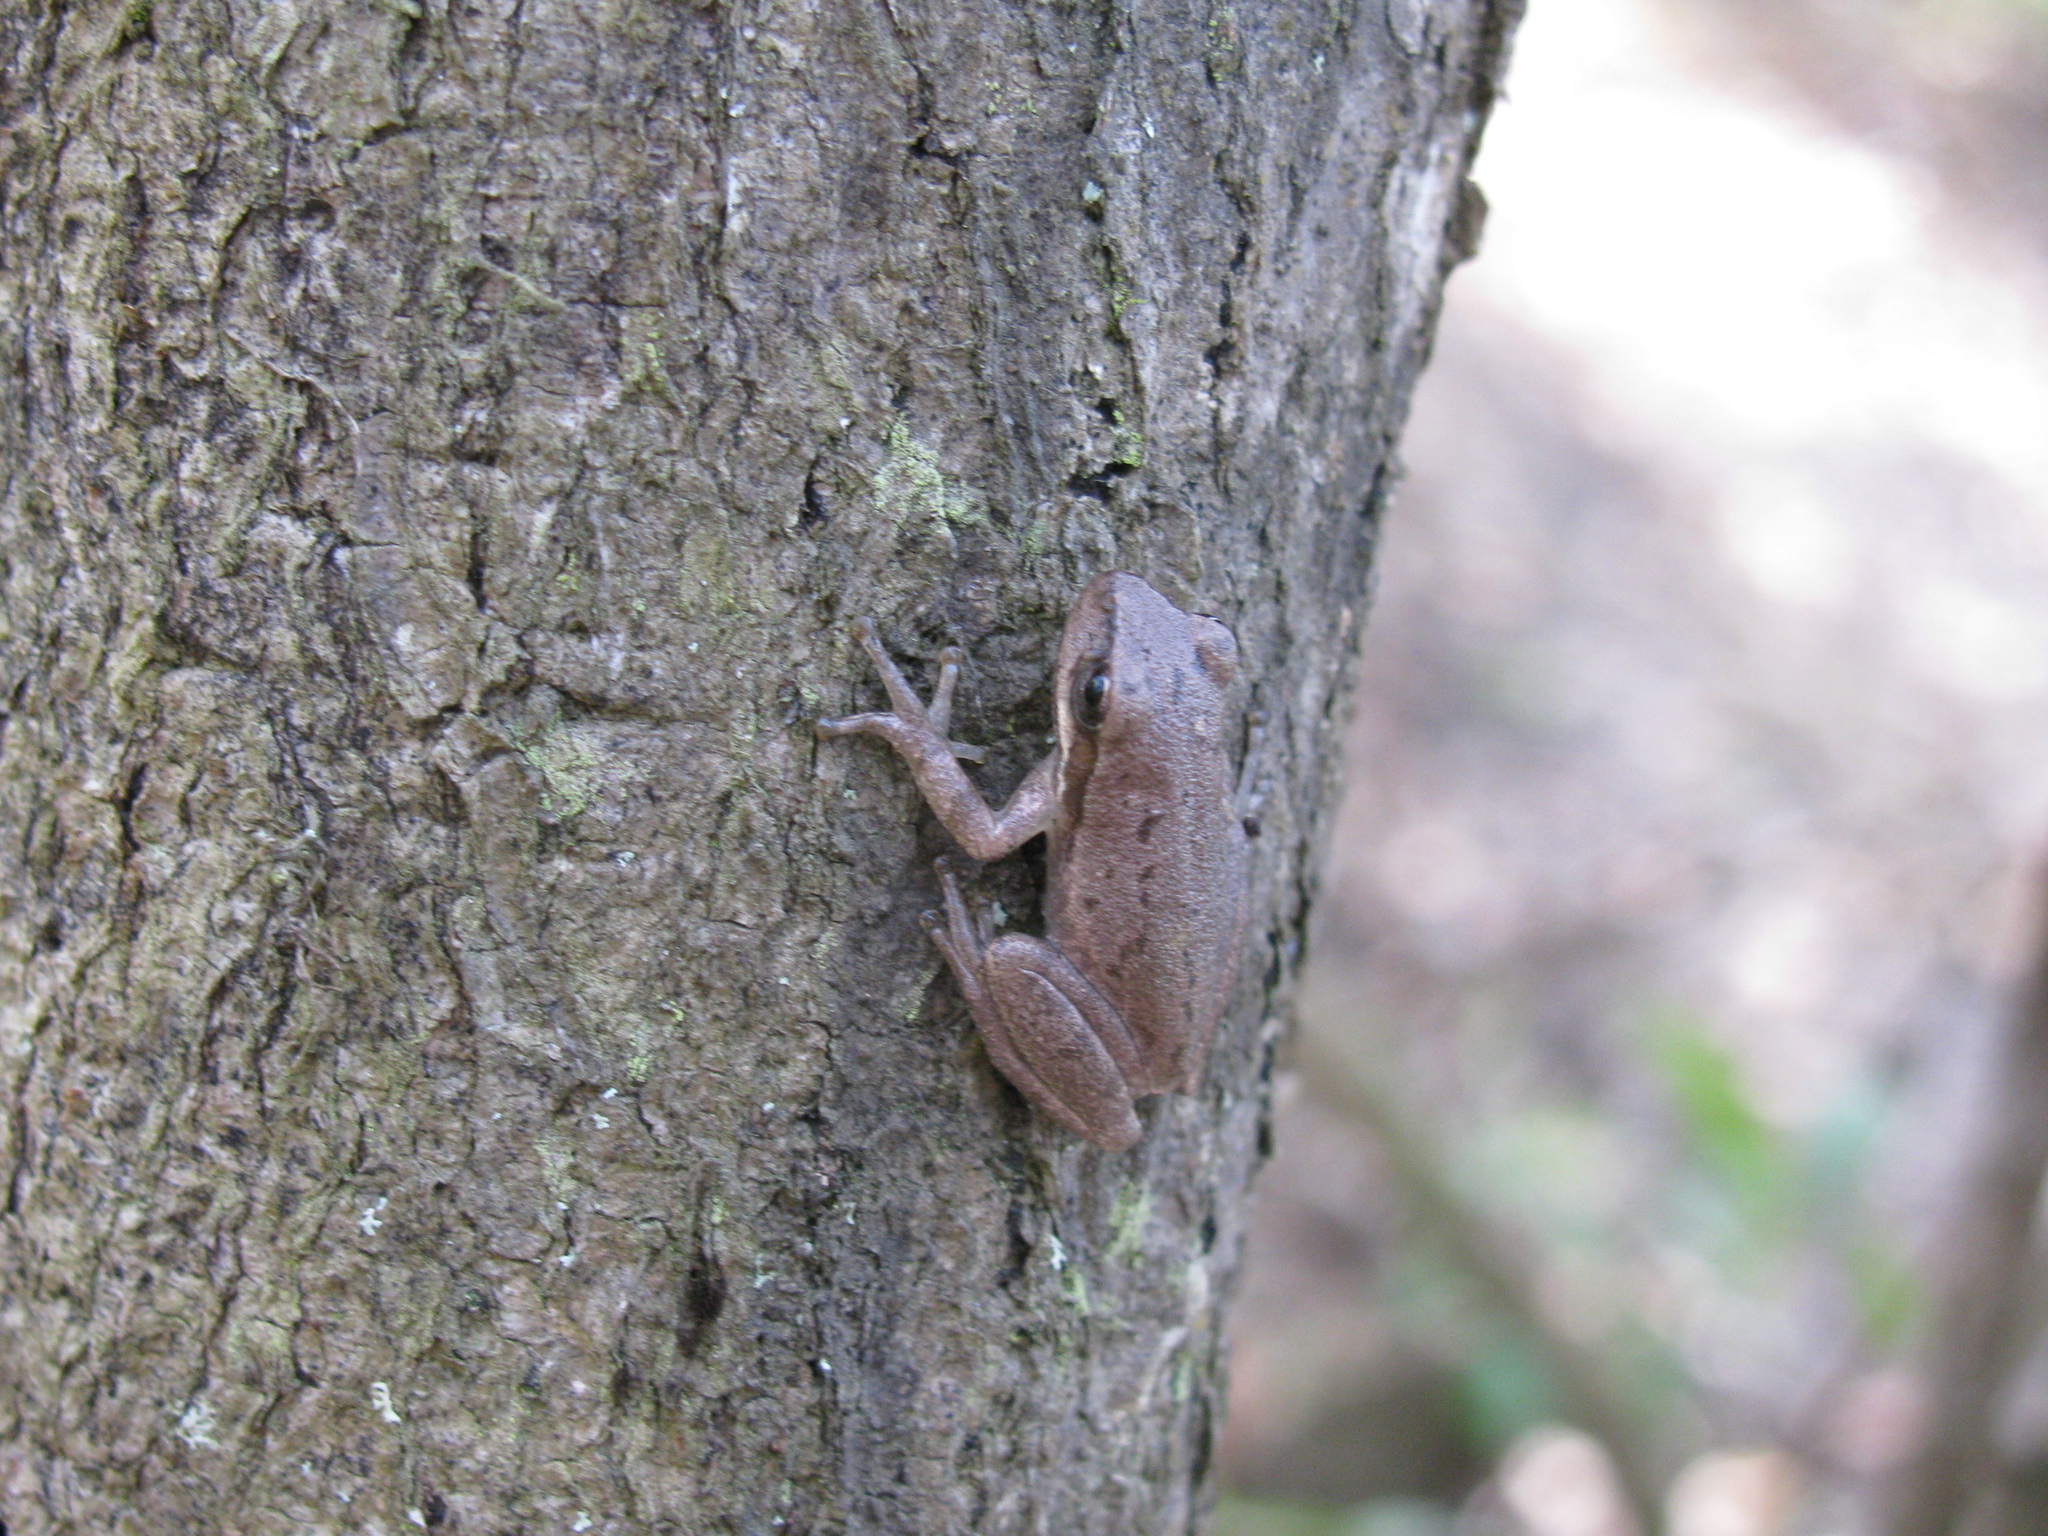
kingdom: Animalia
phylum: Chordata
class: Amphibia
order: Anura
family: Hylidae
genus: Pseudacris
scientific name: Pseudacris fouquettei
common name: Cajun chorus frog
